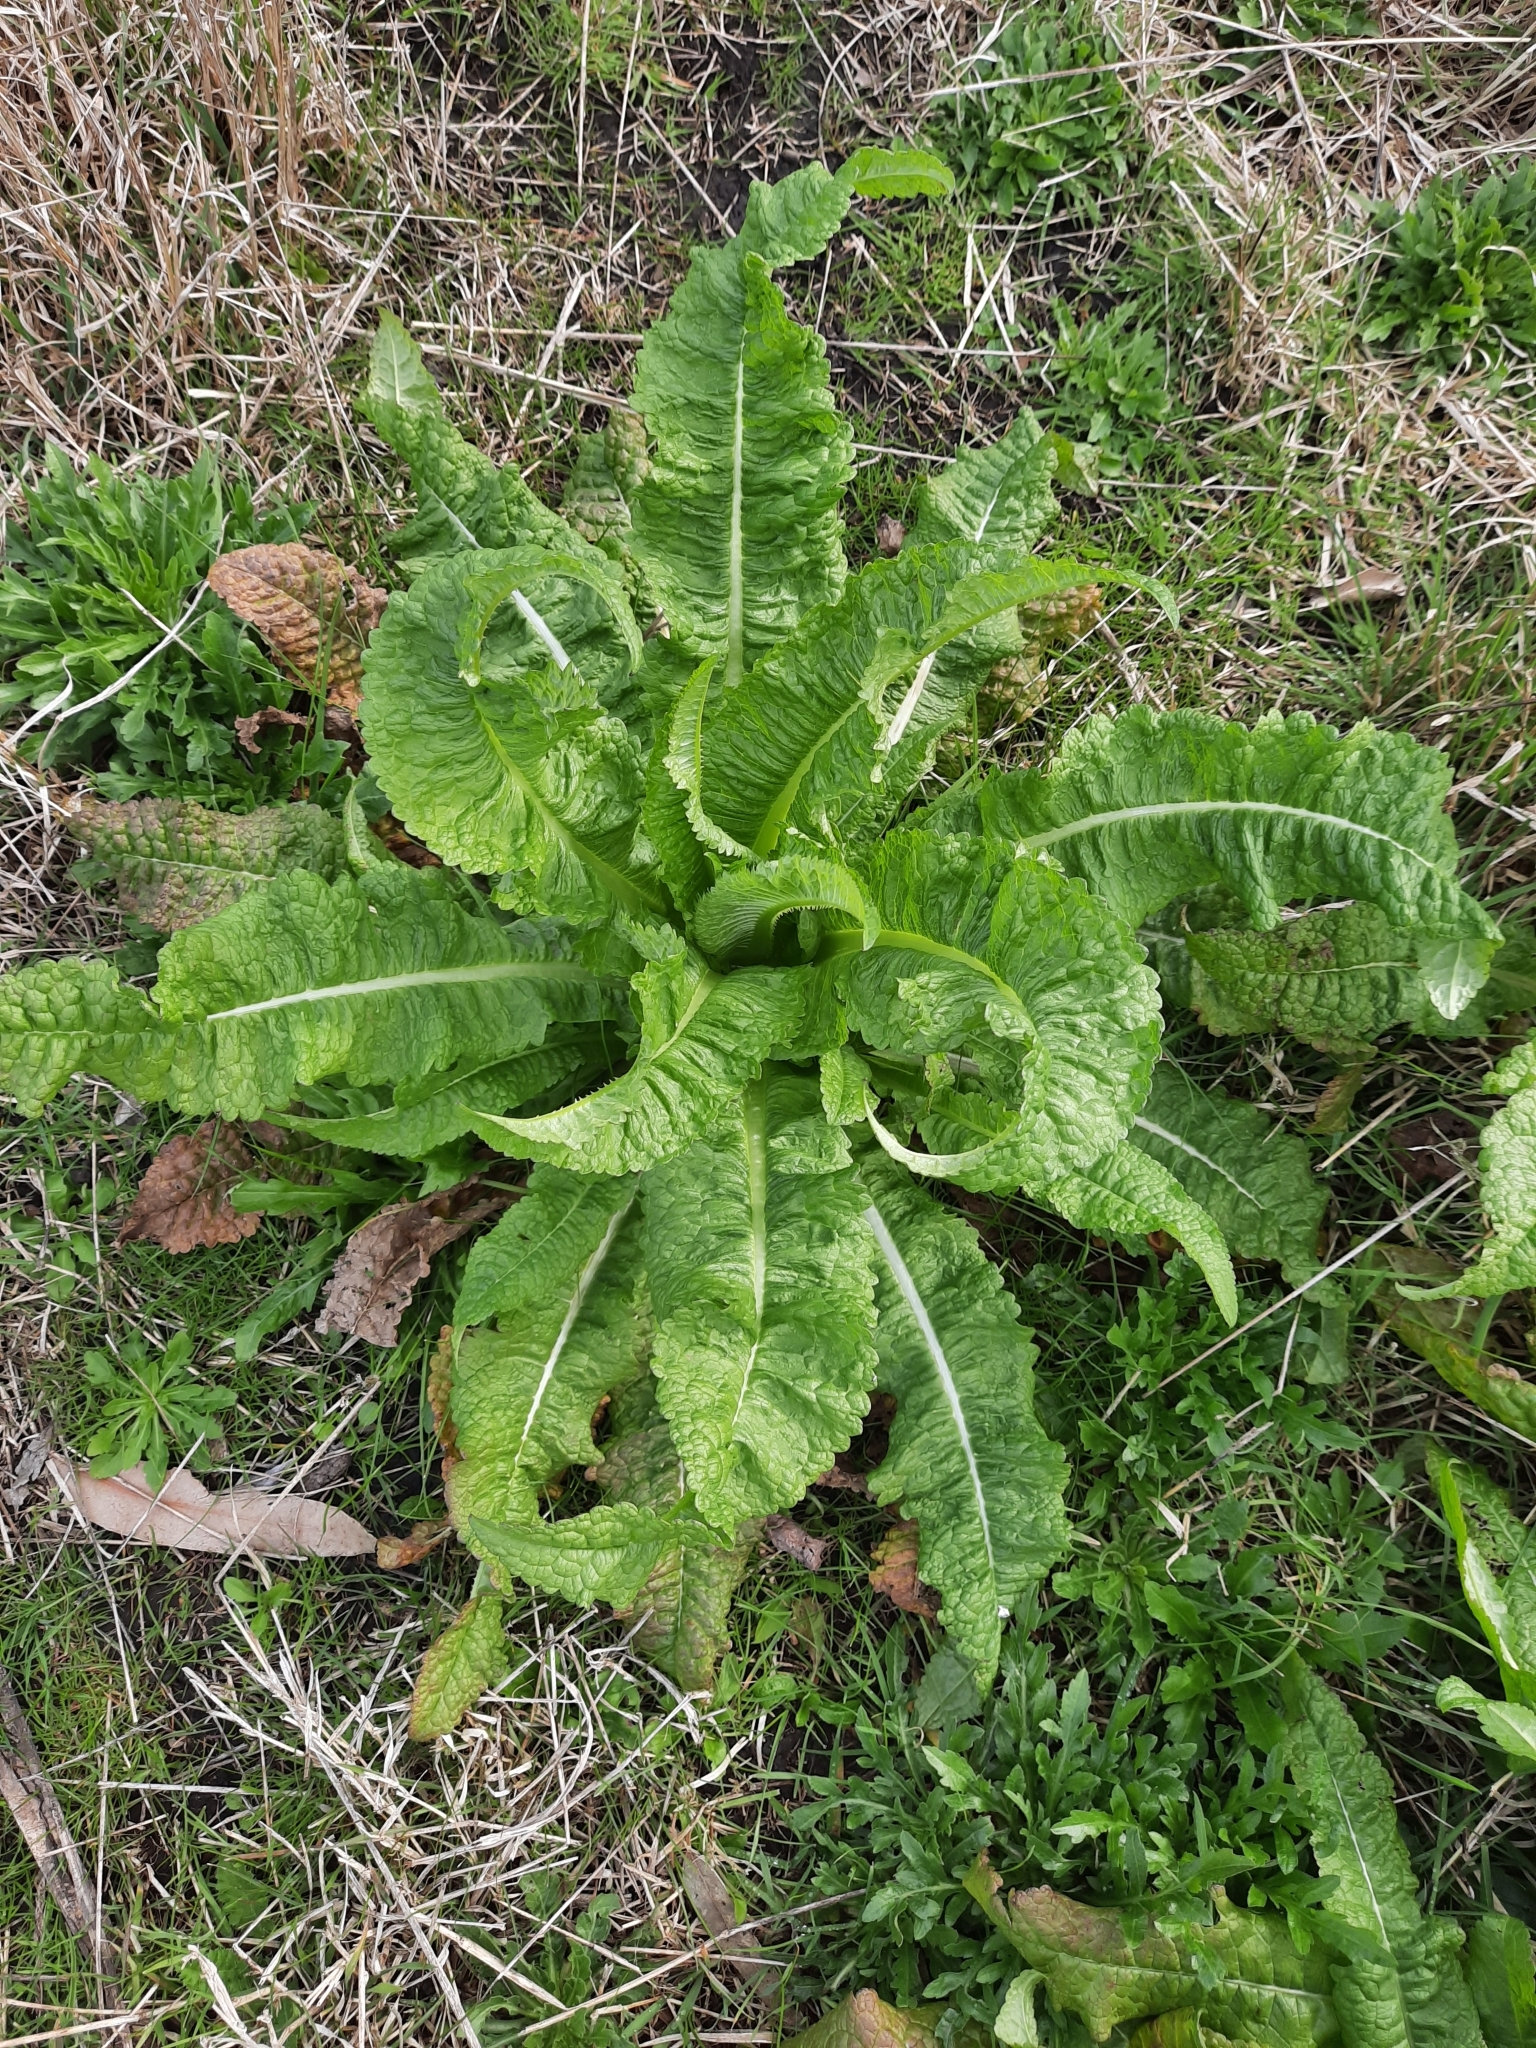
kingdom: Plantae
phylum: Tracheophyta
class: Magnoliopsida
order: Dipsacales
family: Caprifoliaceae
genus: Dipsacus
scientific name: Dipsacus fullonum
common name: Teasel
